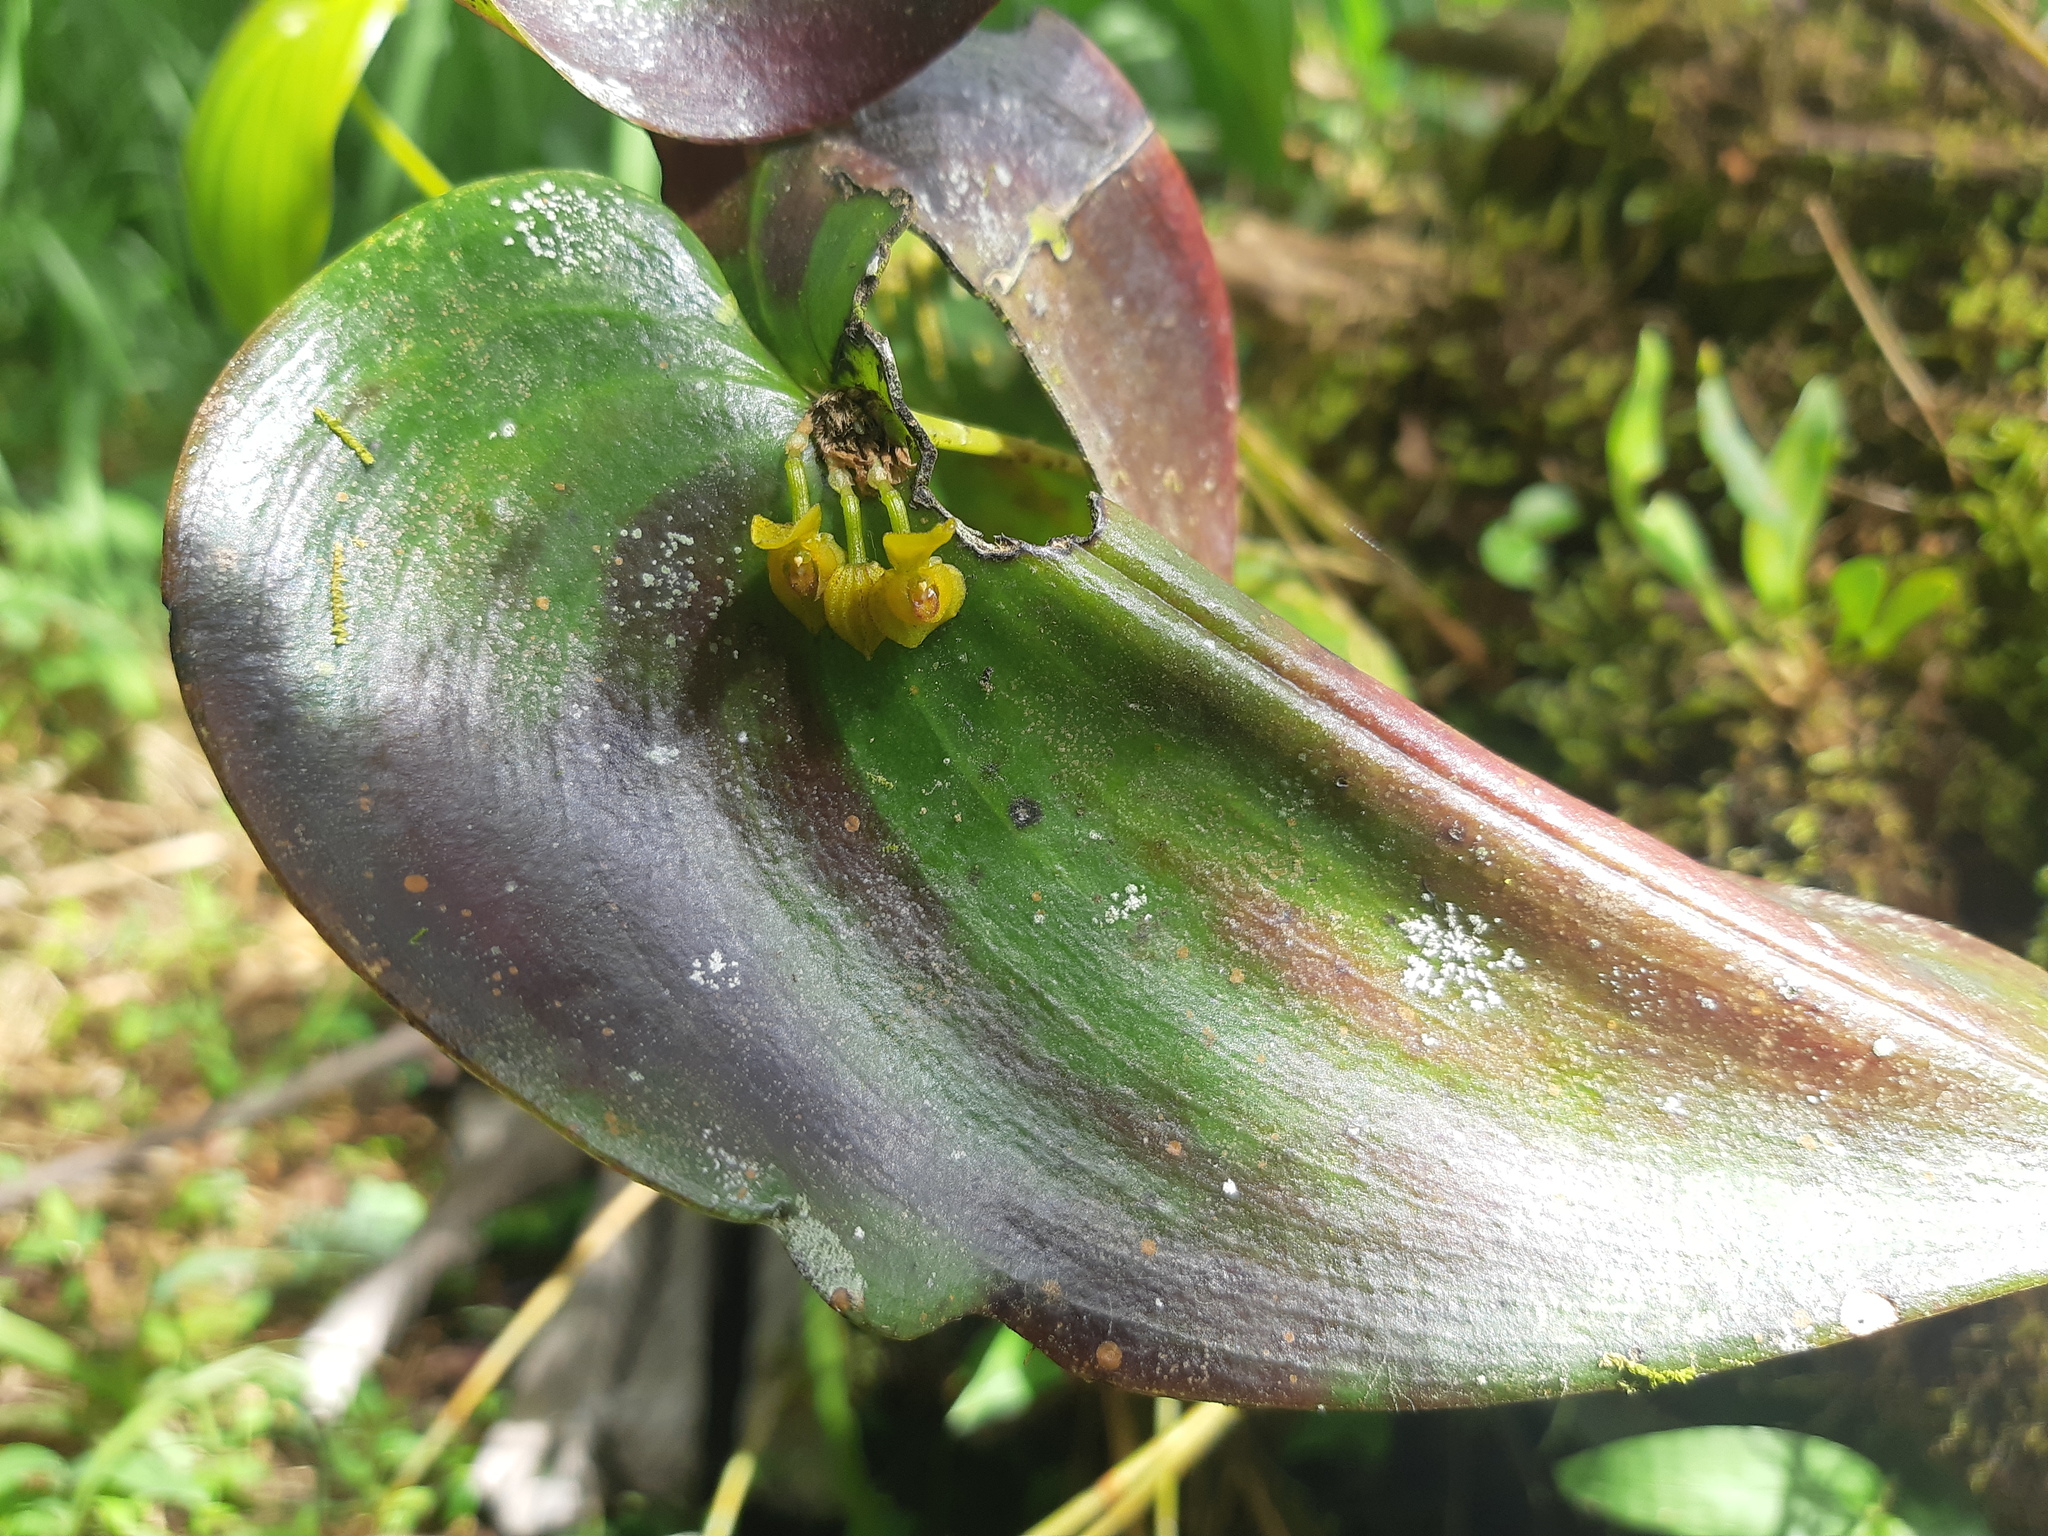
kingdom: Plantae
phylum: Tracheophyta
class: Liliopsida
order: Asparagales
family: Orchidaceae
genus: Pleurothallis
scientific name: Pleurothallis cordata
